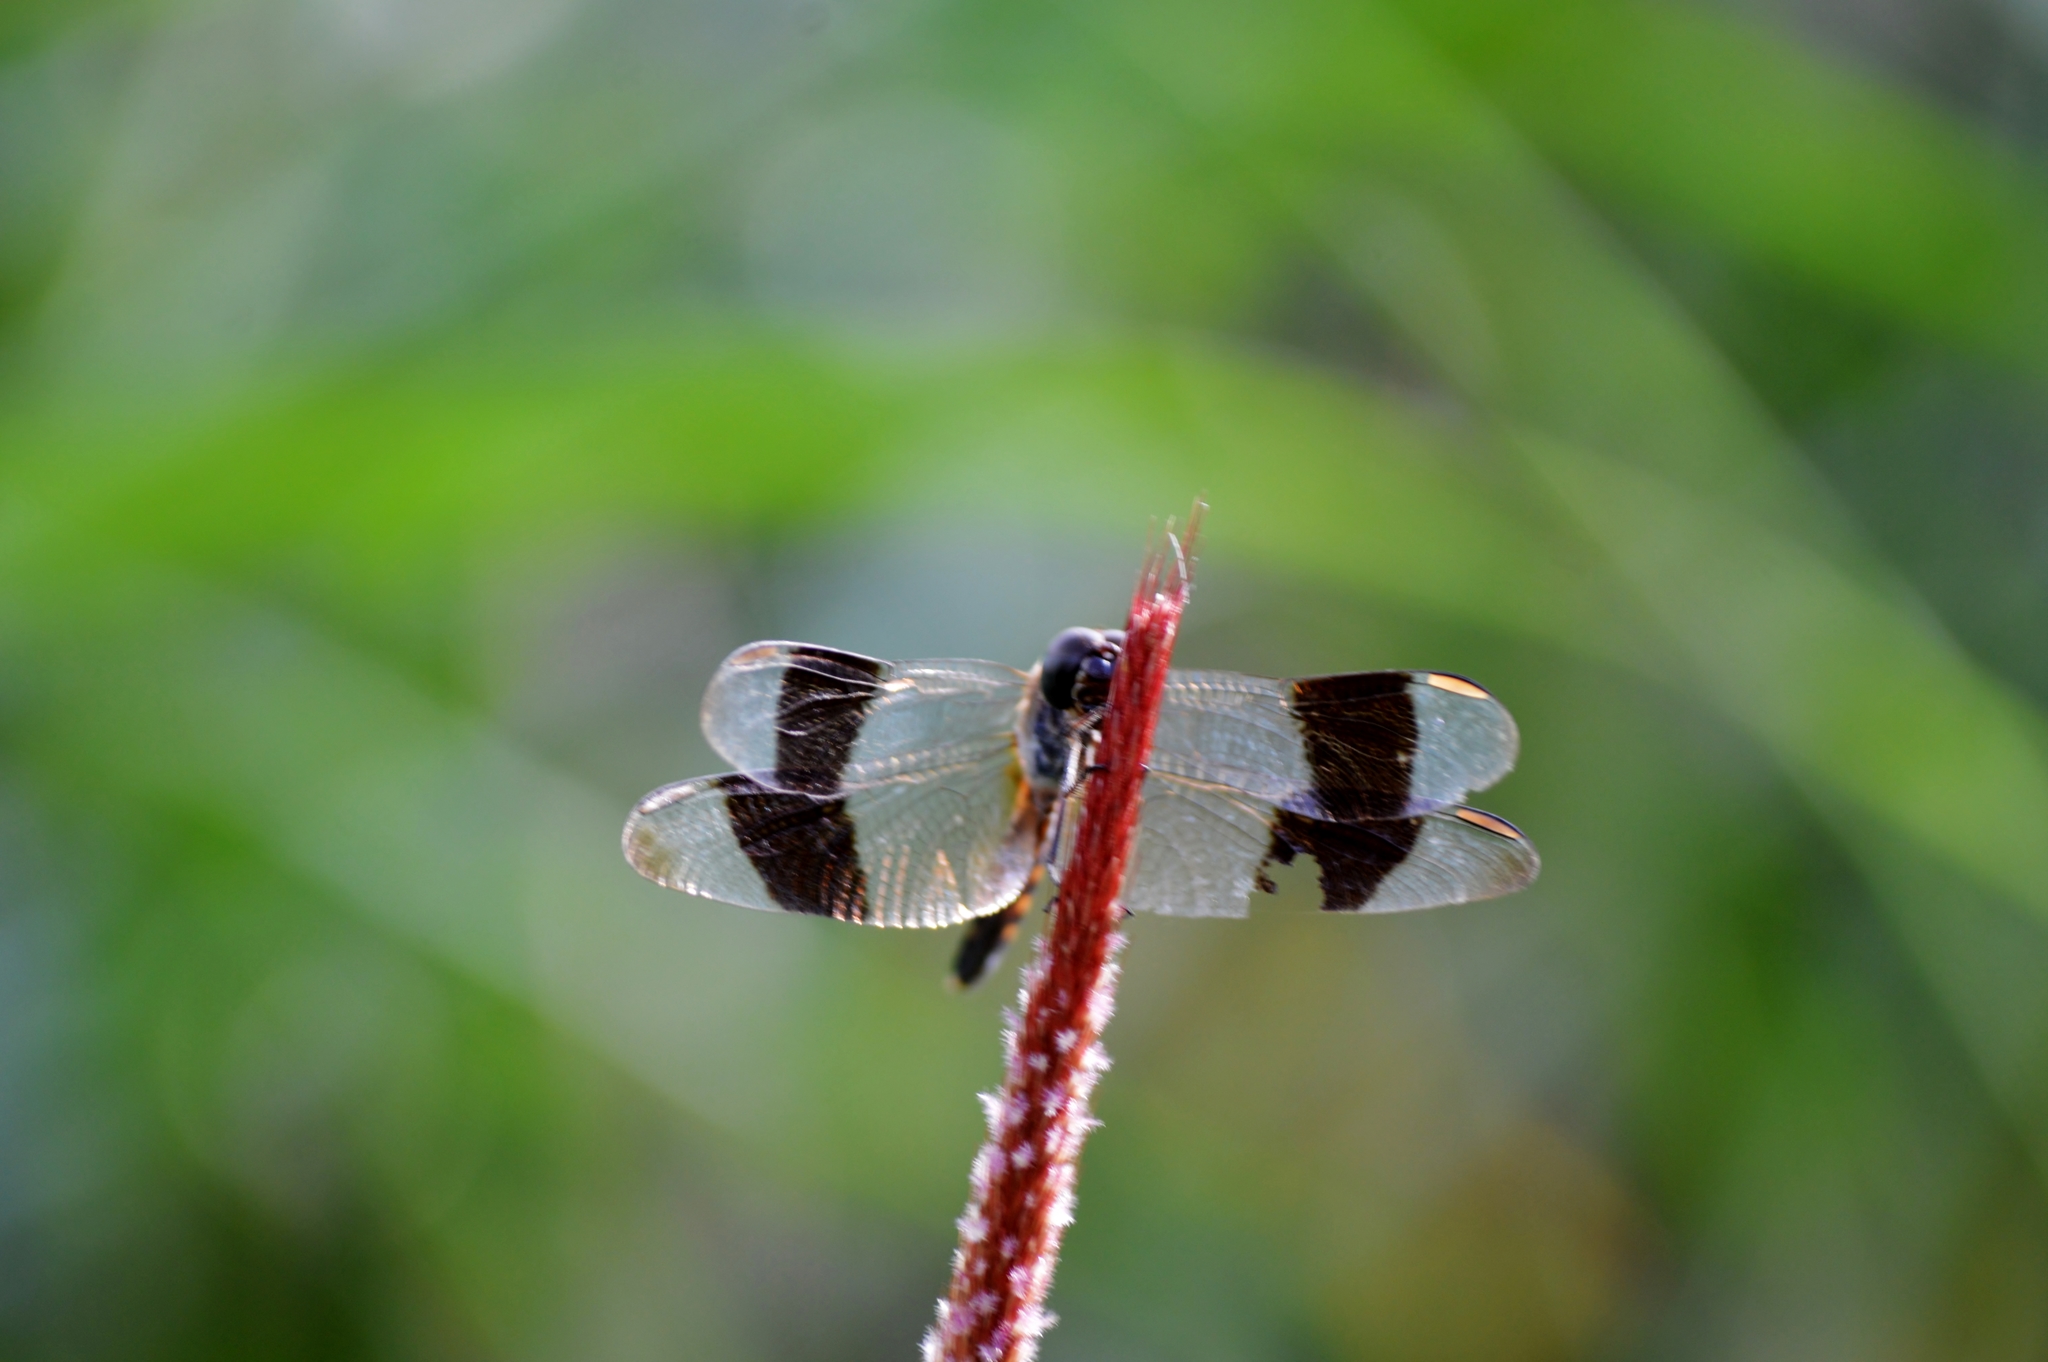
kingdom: Animalia
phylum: Arthropoda
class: Insecta
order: Odonata
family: Libellulidae
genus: Erythrodiplax
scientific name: Erythrodiplax umbrata
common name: Band-winged dragonlet
